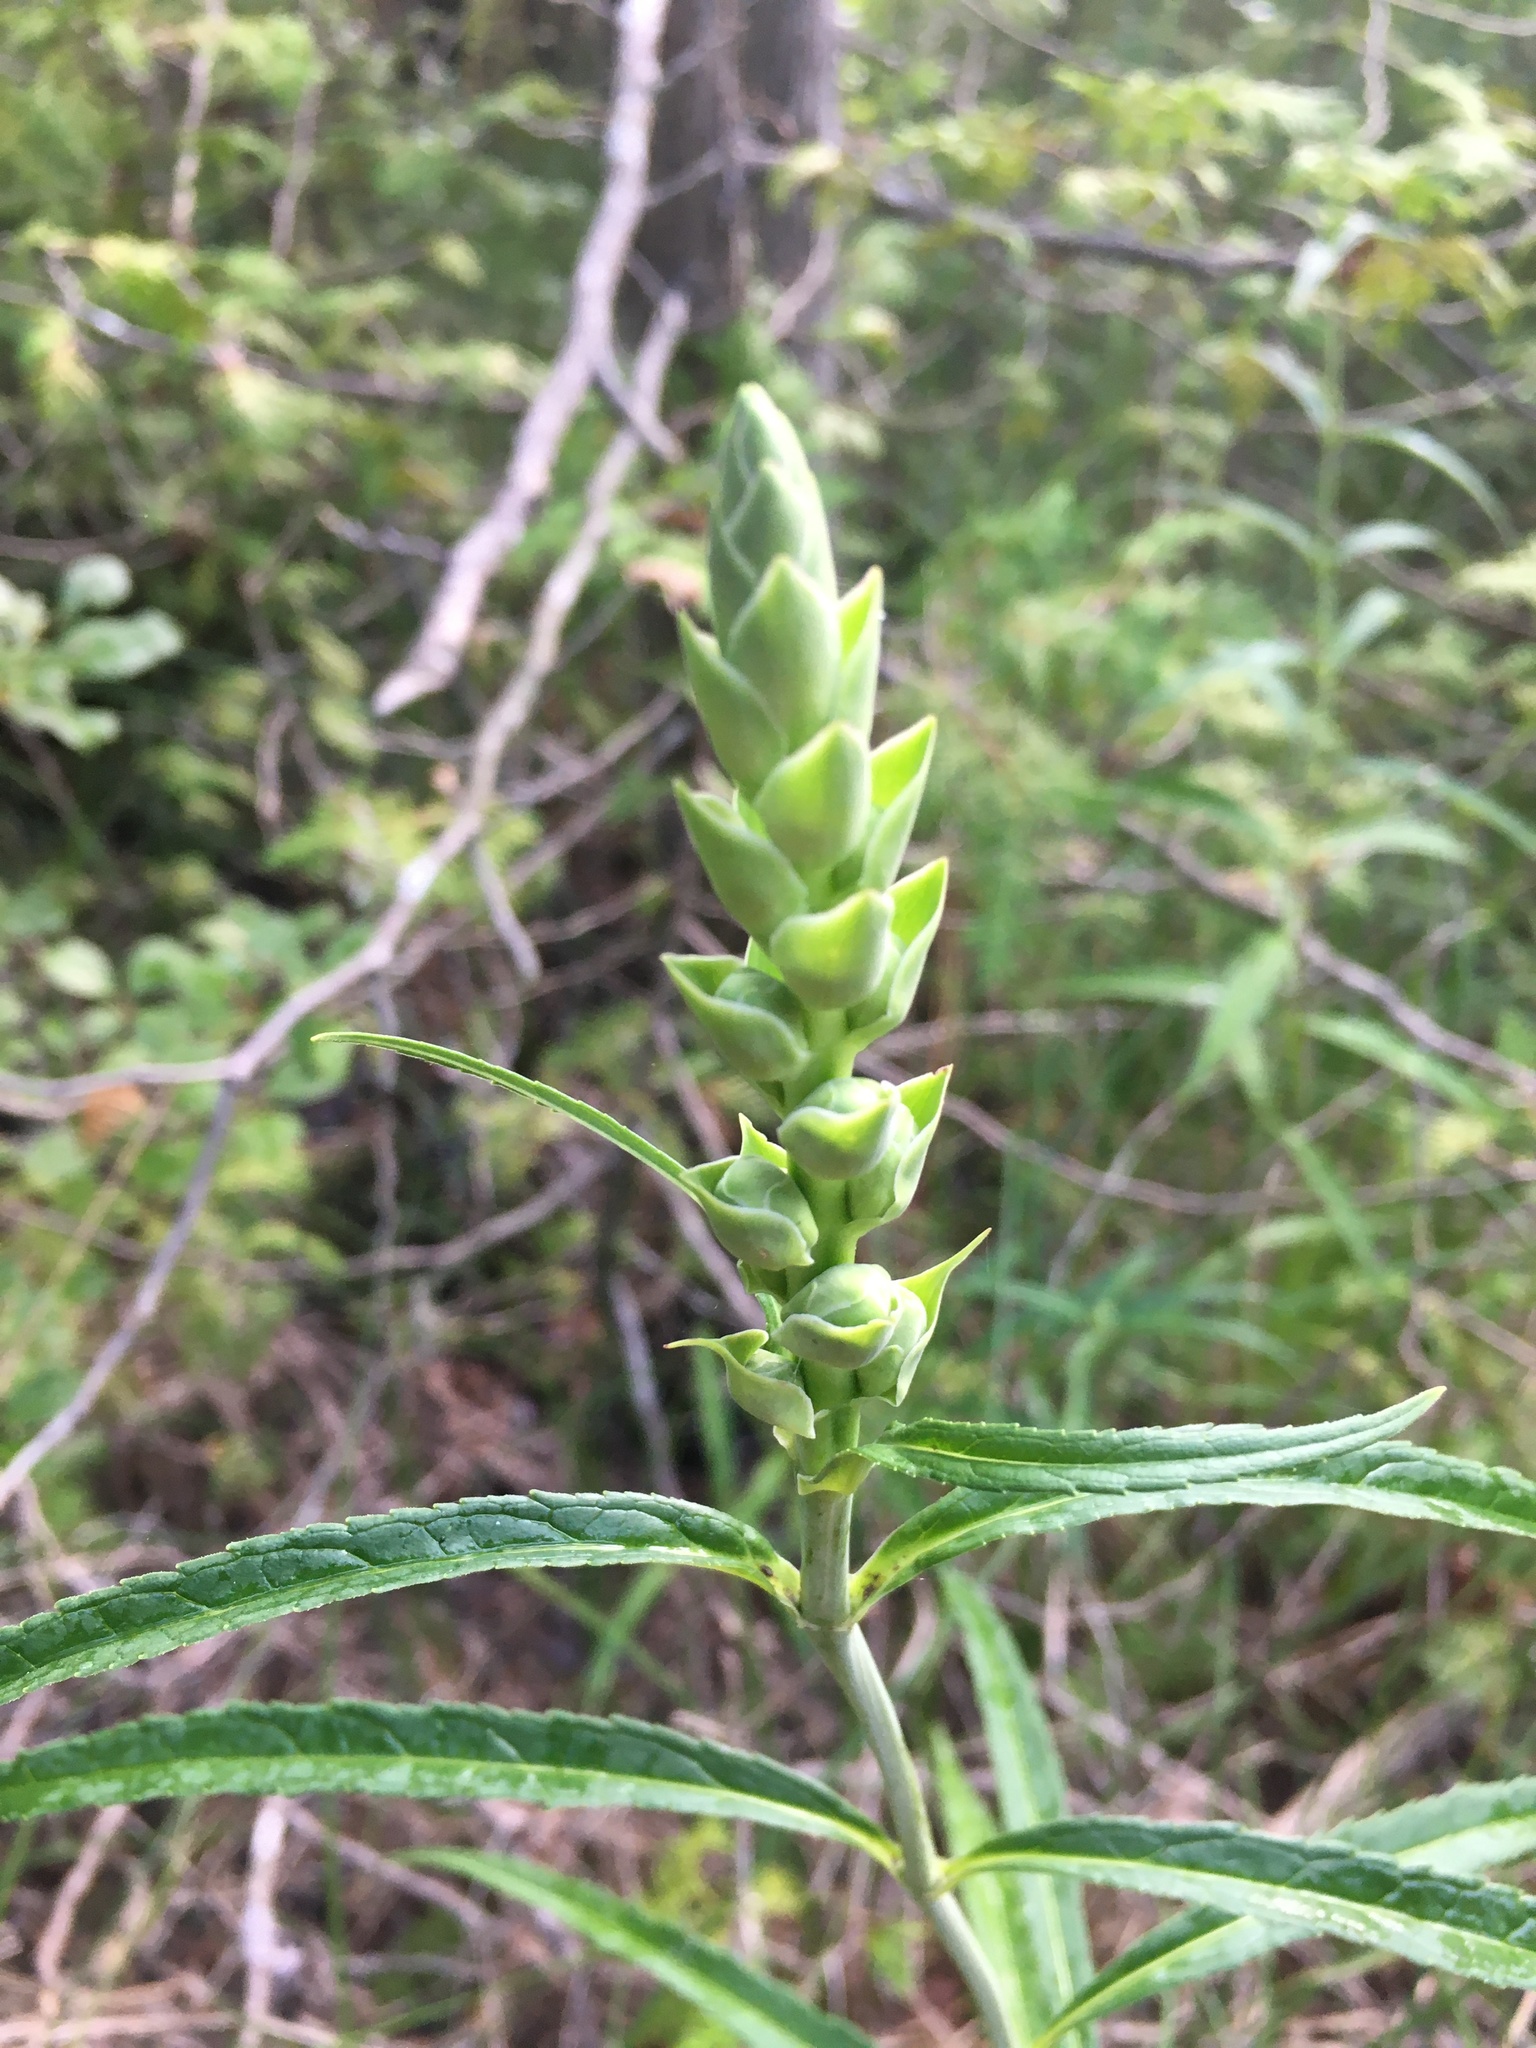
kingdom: Plantae
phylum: Tracheophyta
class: Magnoliopsida
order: Lamiales
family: Plantaginaceae
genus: Chelone
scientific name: Chelone glabra
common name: Snakehead
